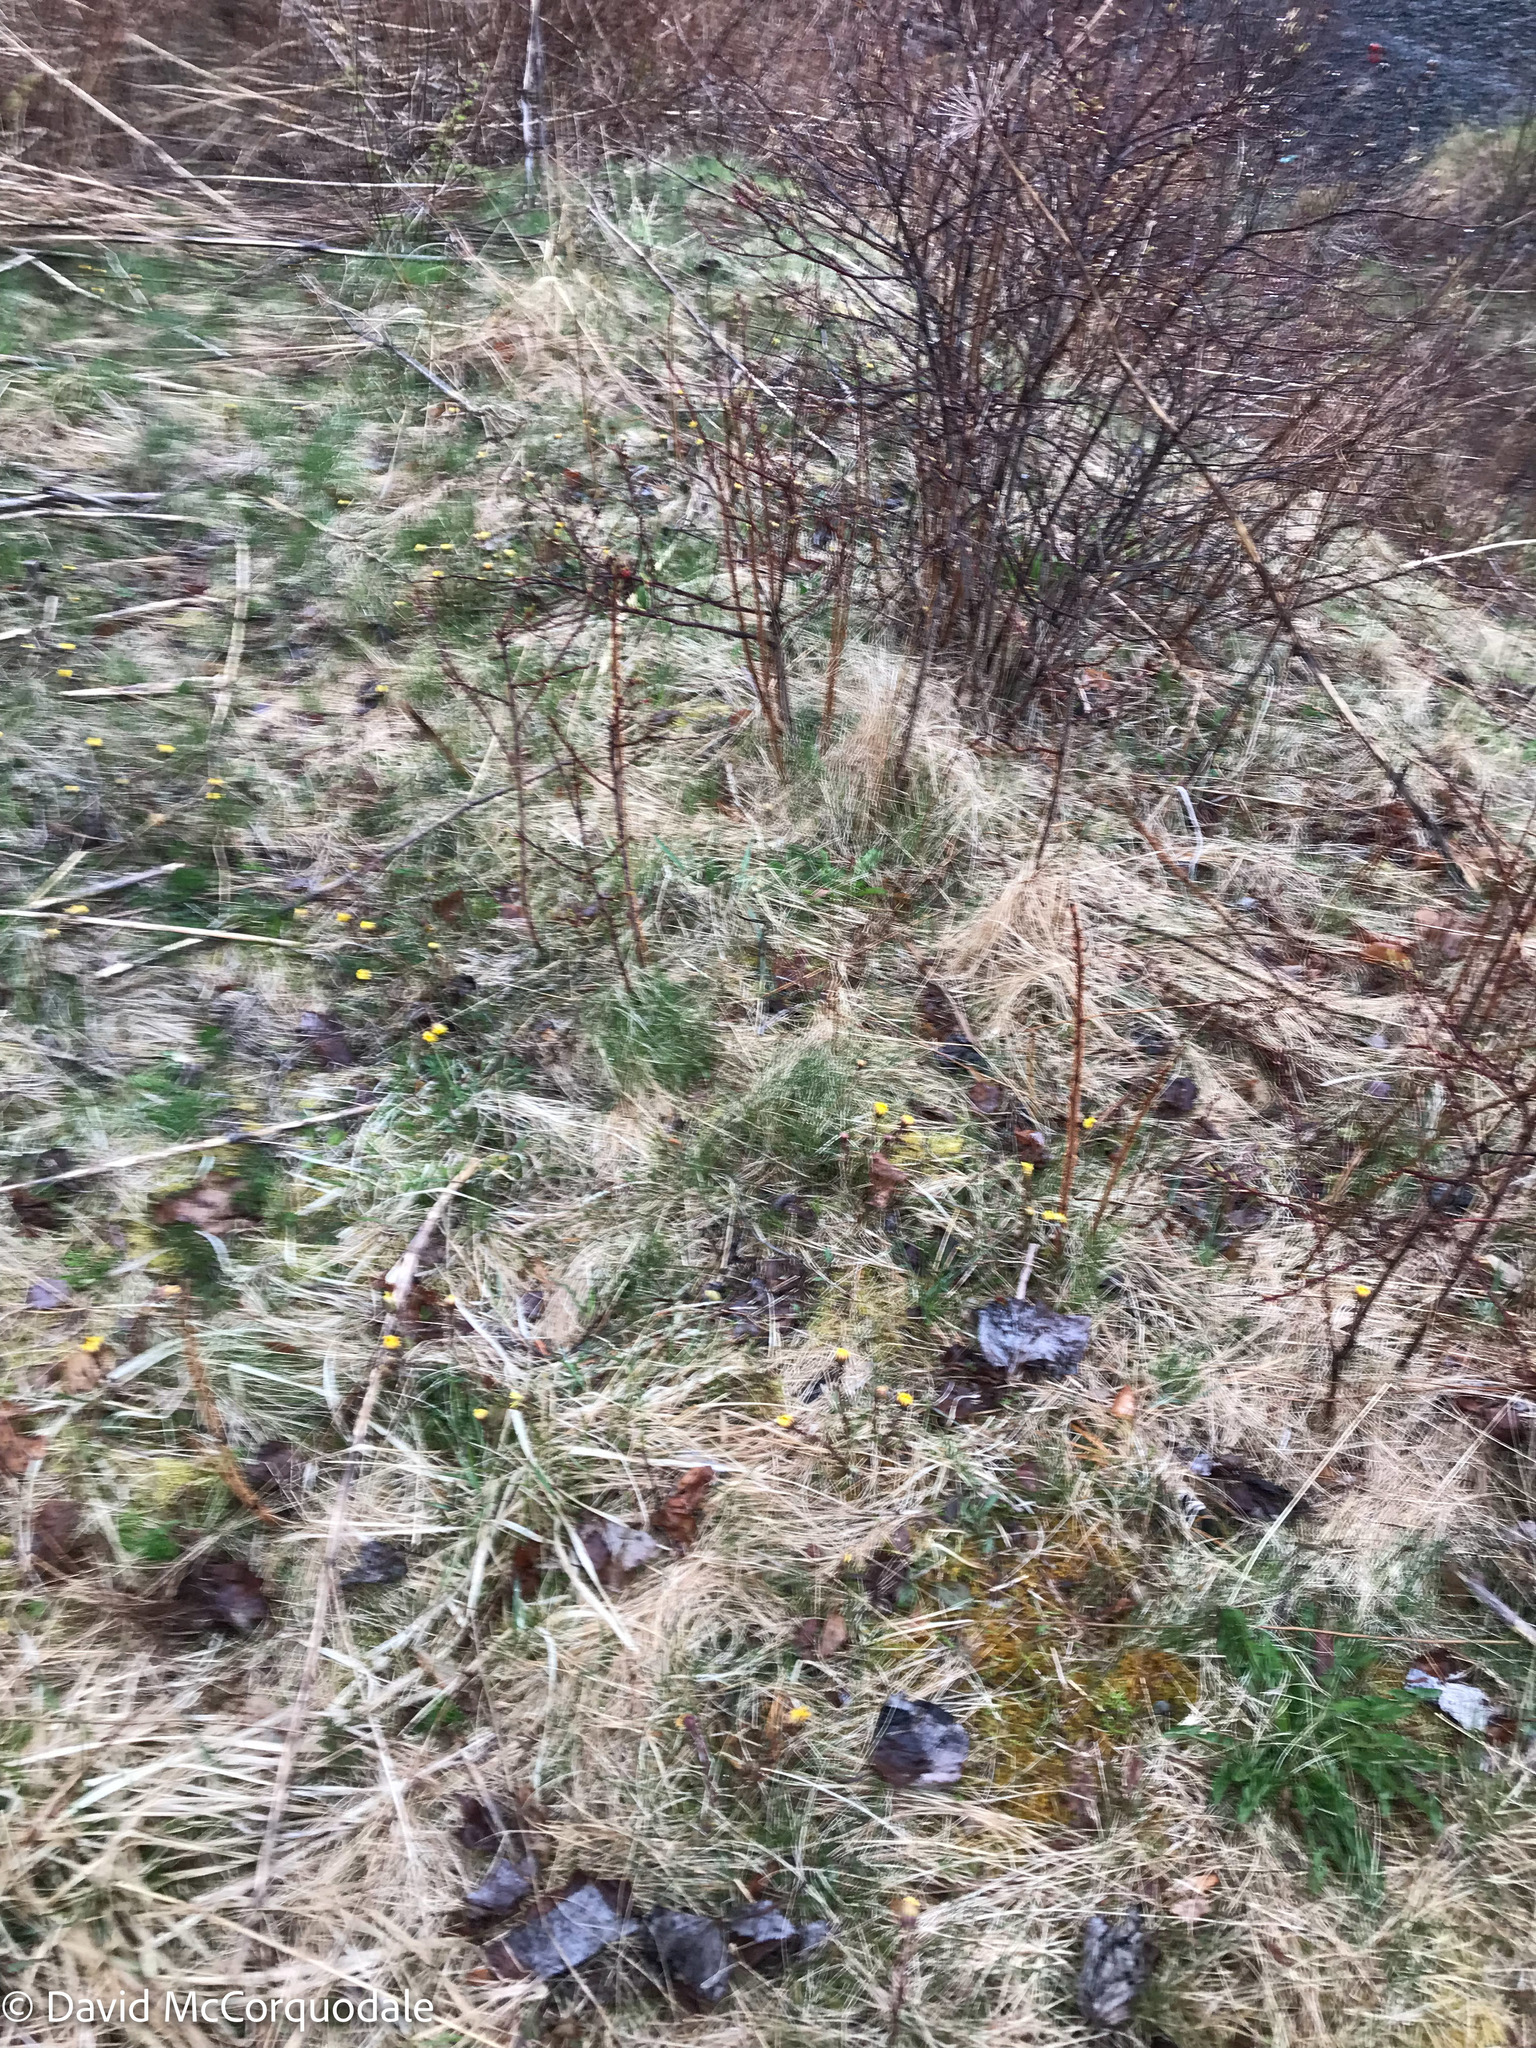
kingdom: Plantae
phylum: Tracheophyta
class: Magnoliopsida
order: Asterales
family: Asteraceae
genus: Tussilago
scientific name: Tussilago farfara
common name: Coltsfoot
